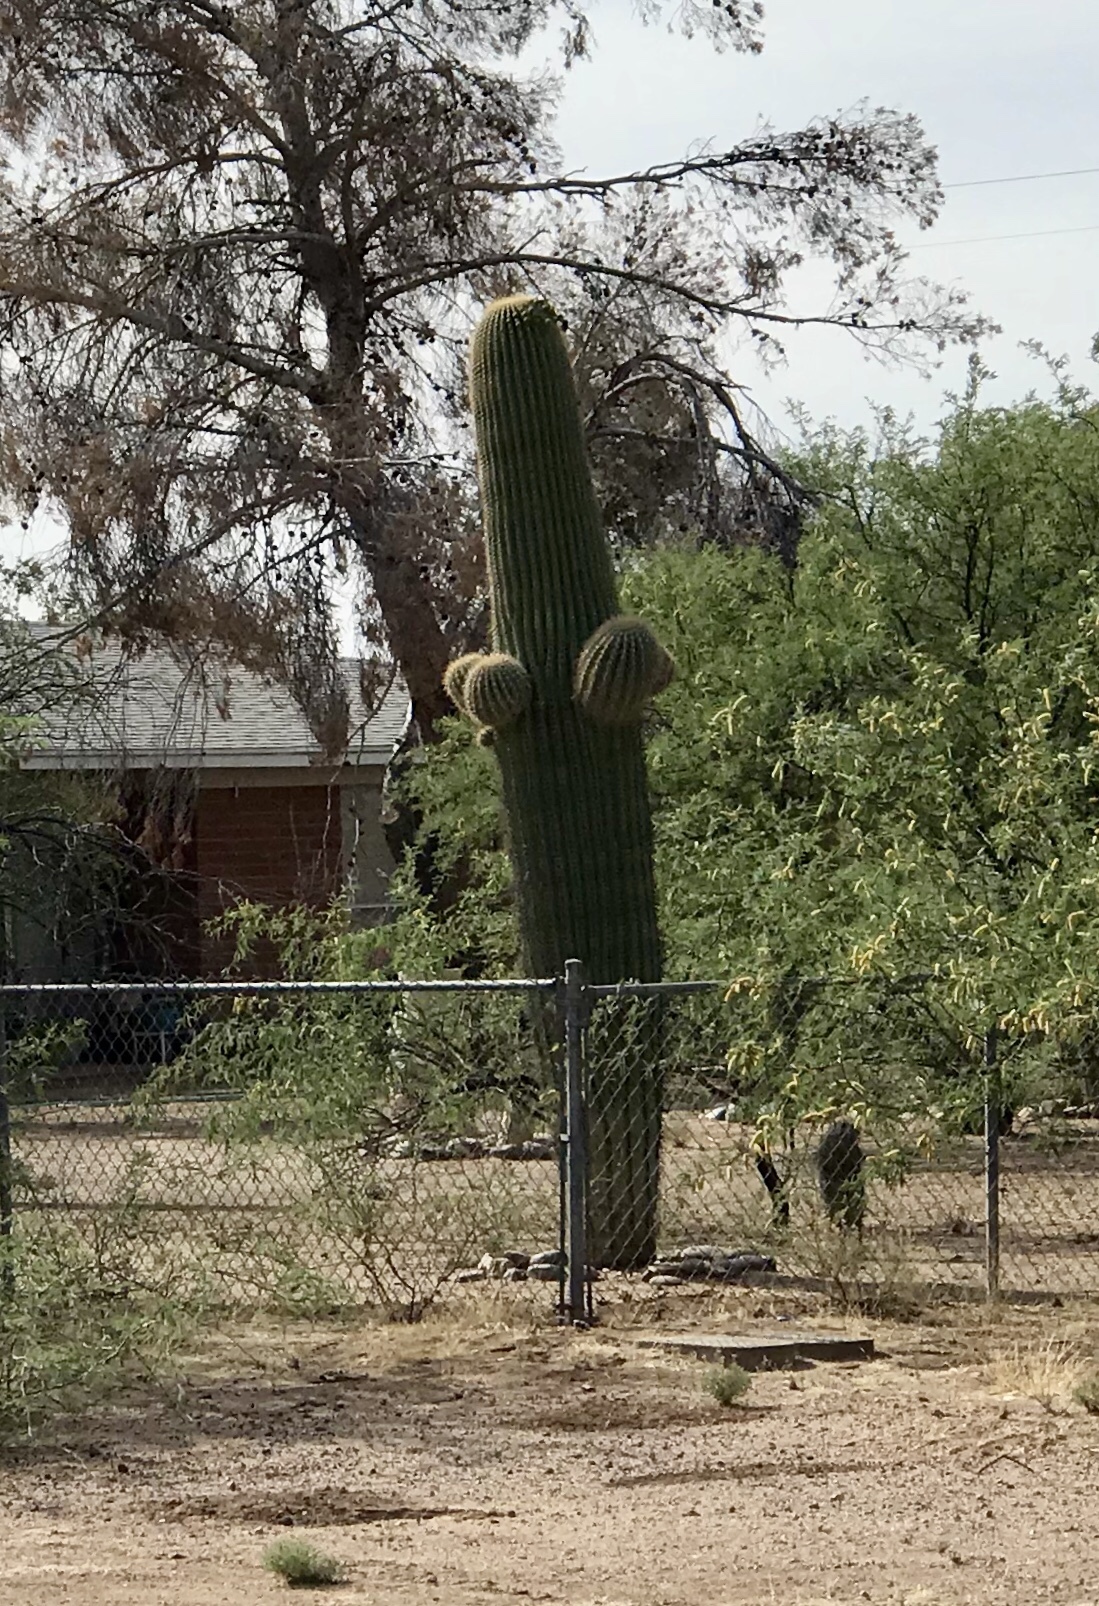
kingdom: Plantae
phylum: Tracheophyta
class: Magnoliopsida
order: Caryophyllales
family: Cactaceae
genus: Carnegiea
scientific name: Carnegiea gigantea
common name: Saguaro
